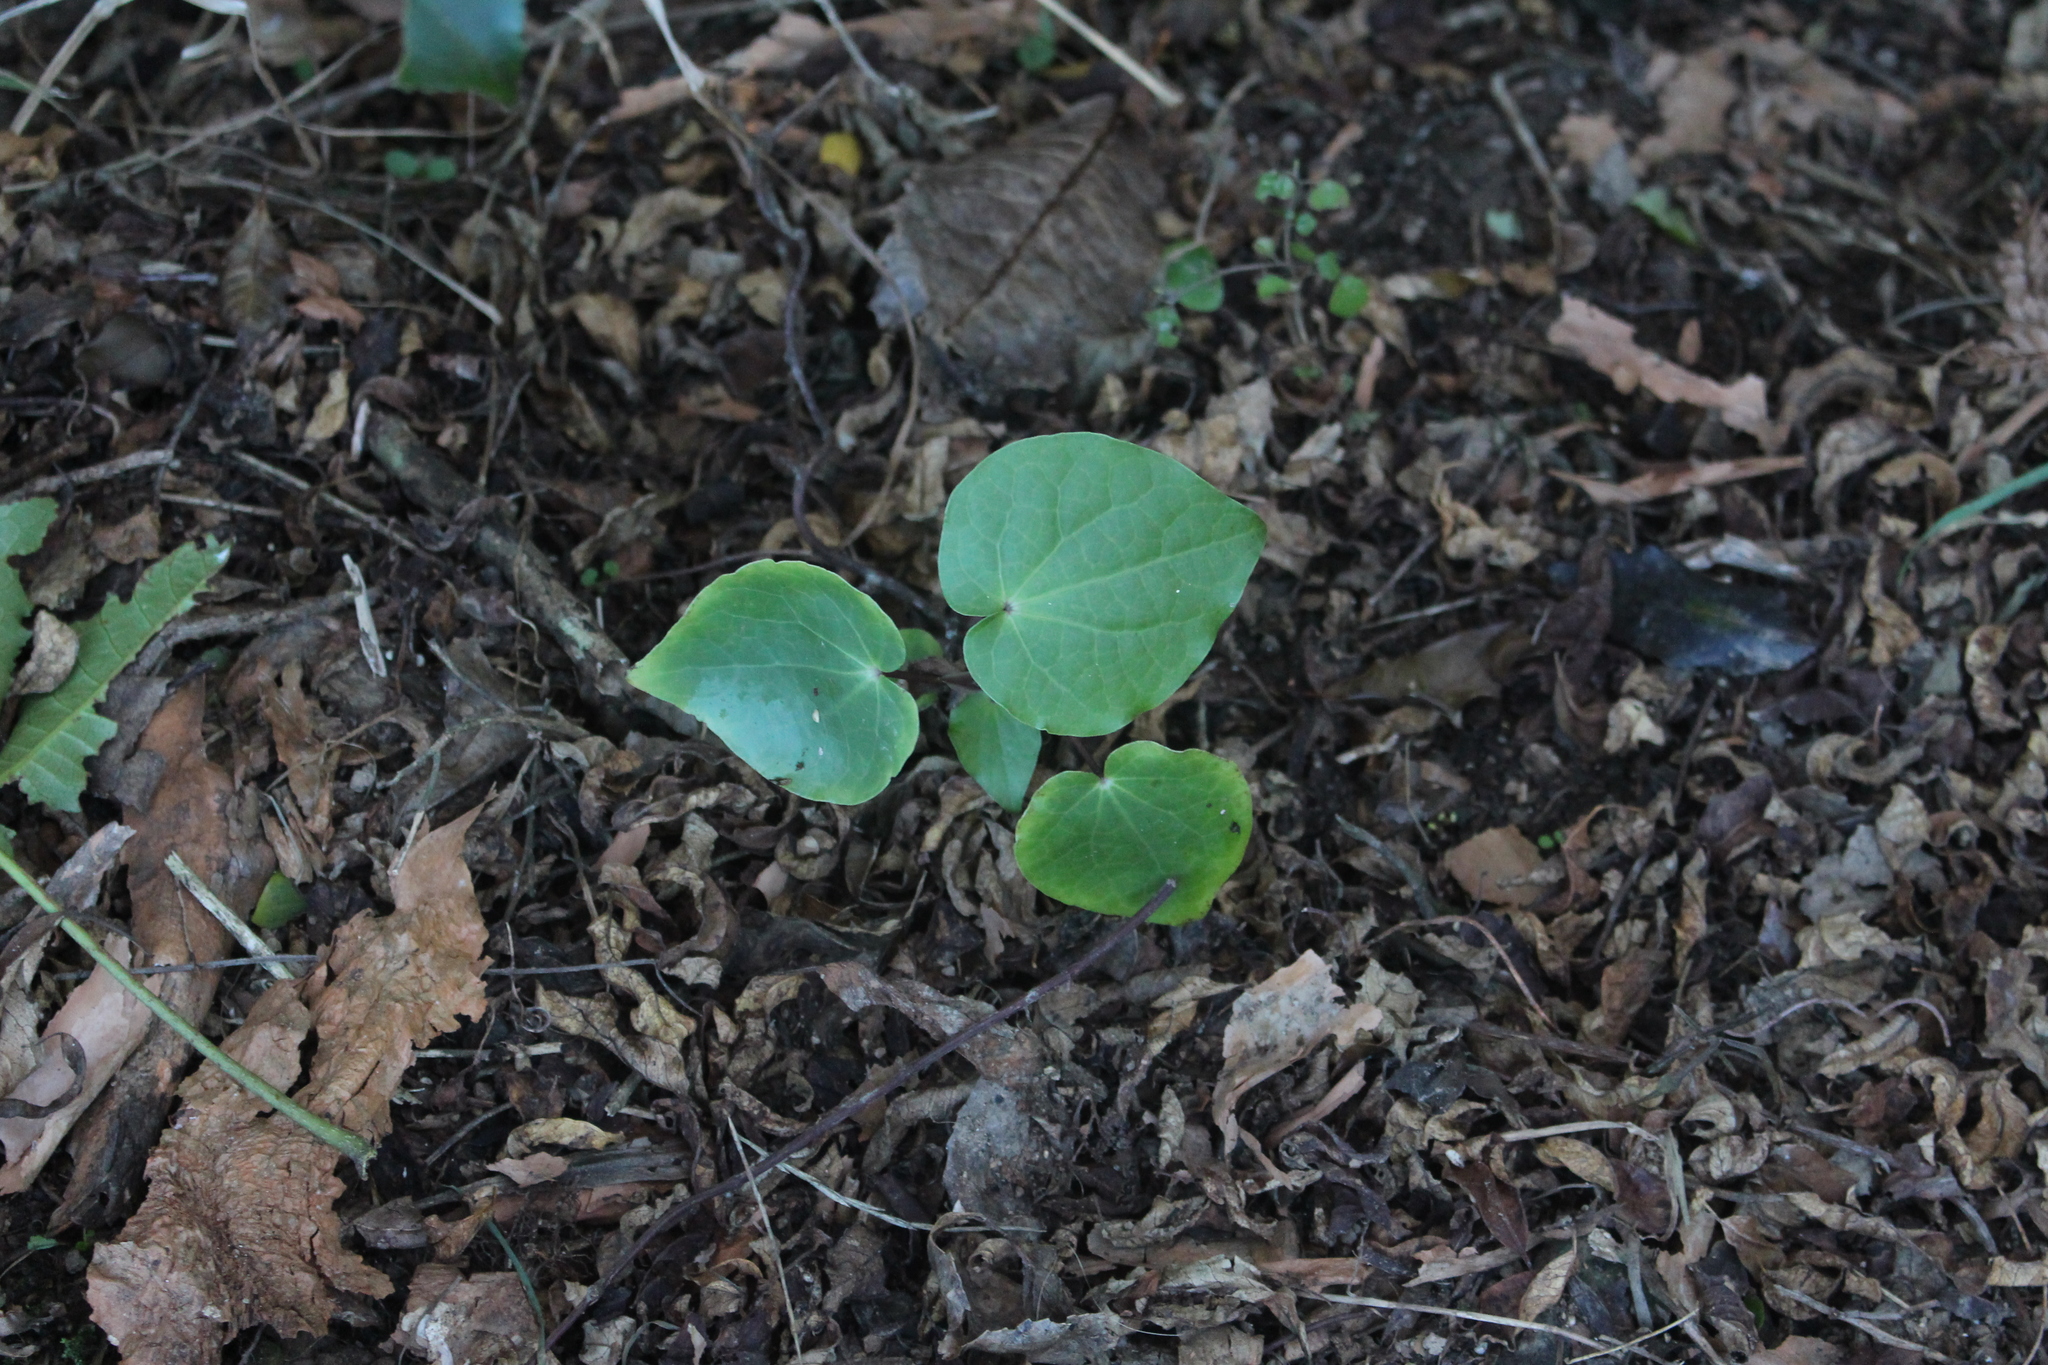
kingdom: Plantae
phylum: Tracheophyta
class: Magnoliopsida
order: Piperales
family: Piperaceae
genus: Macropiper
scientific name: Macropiper excelsum
